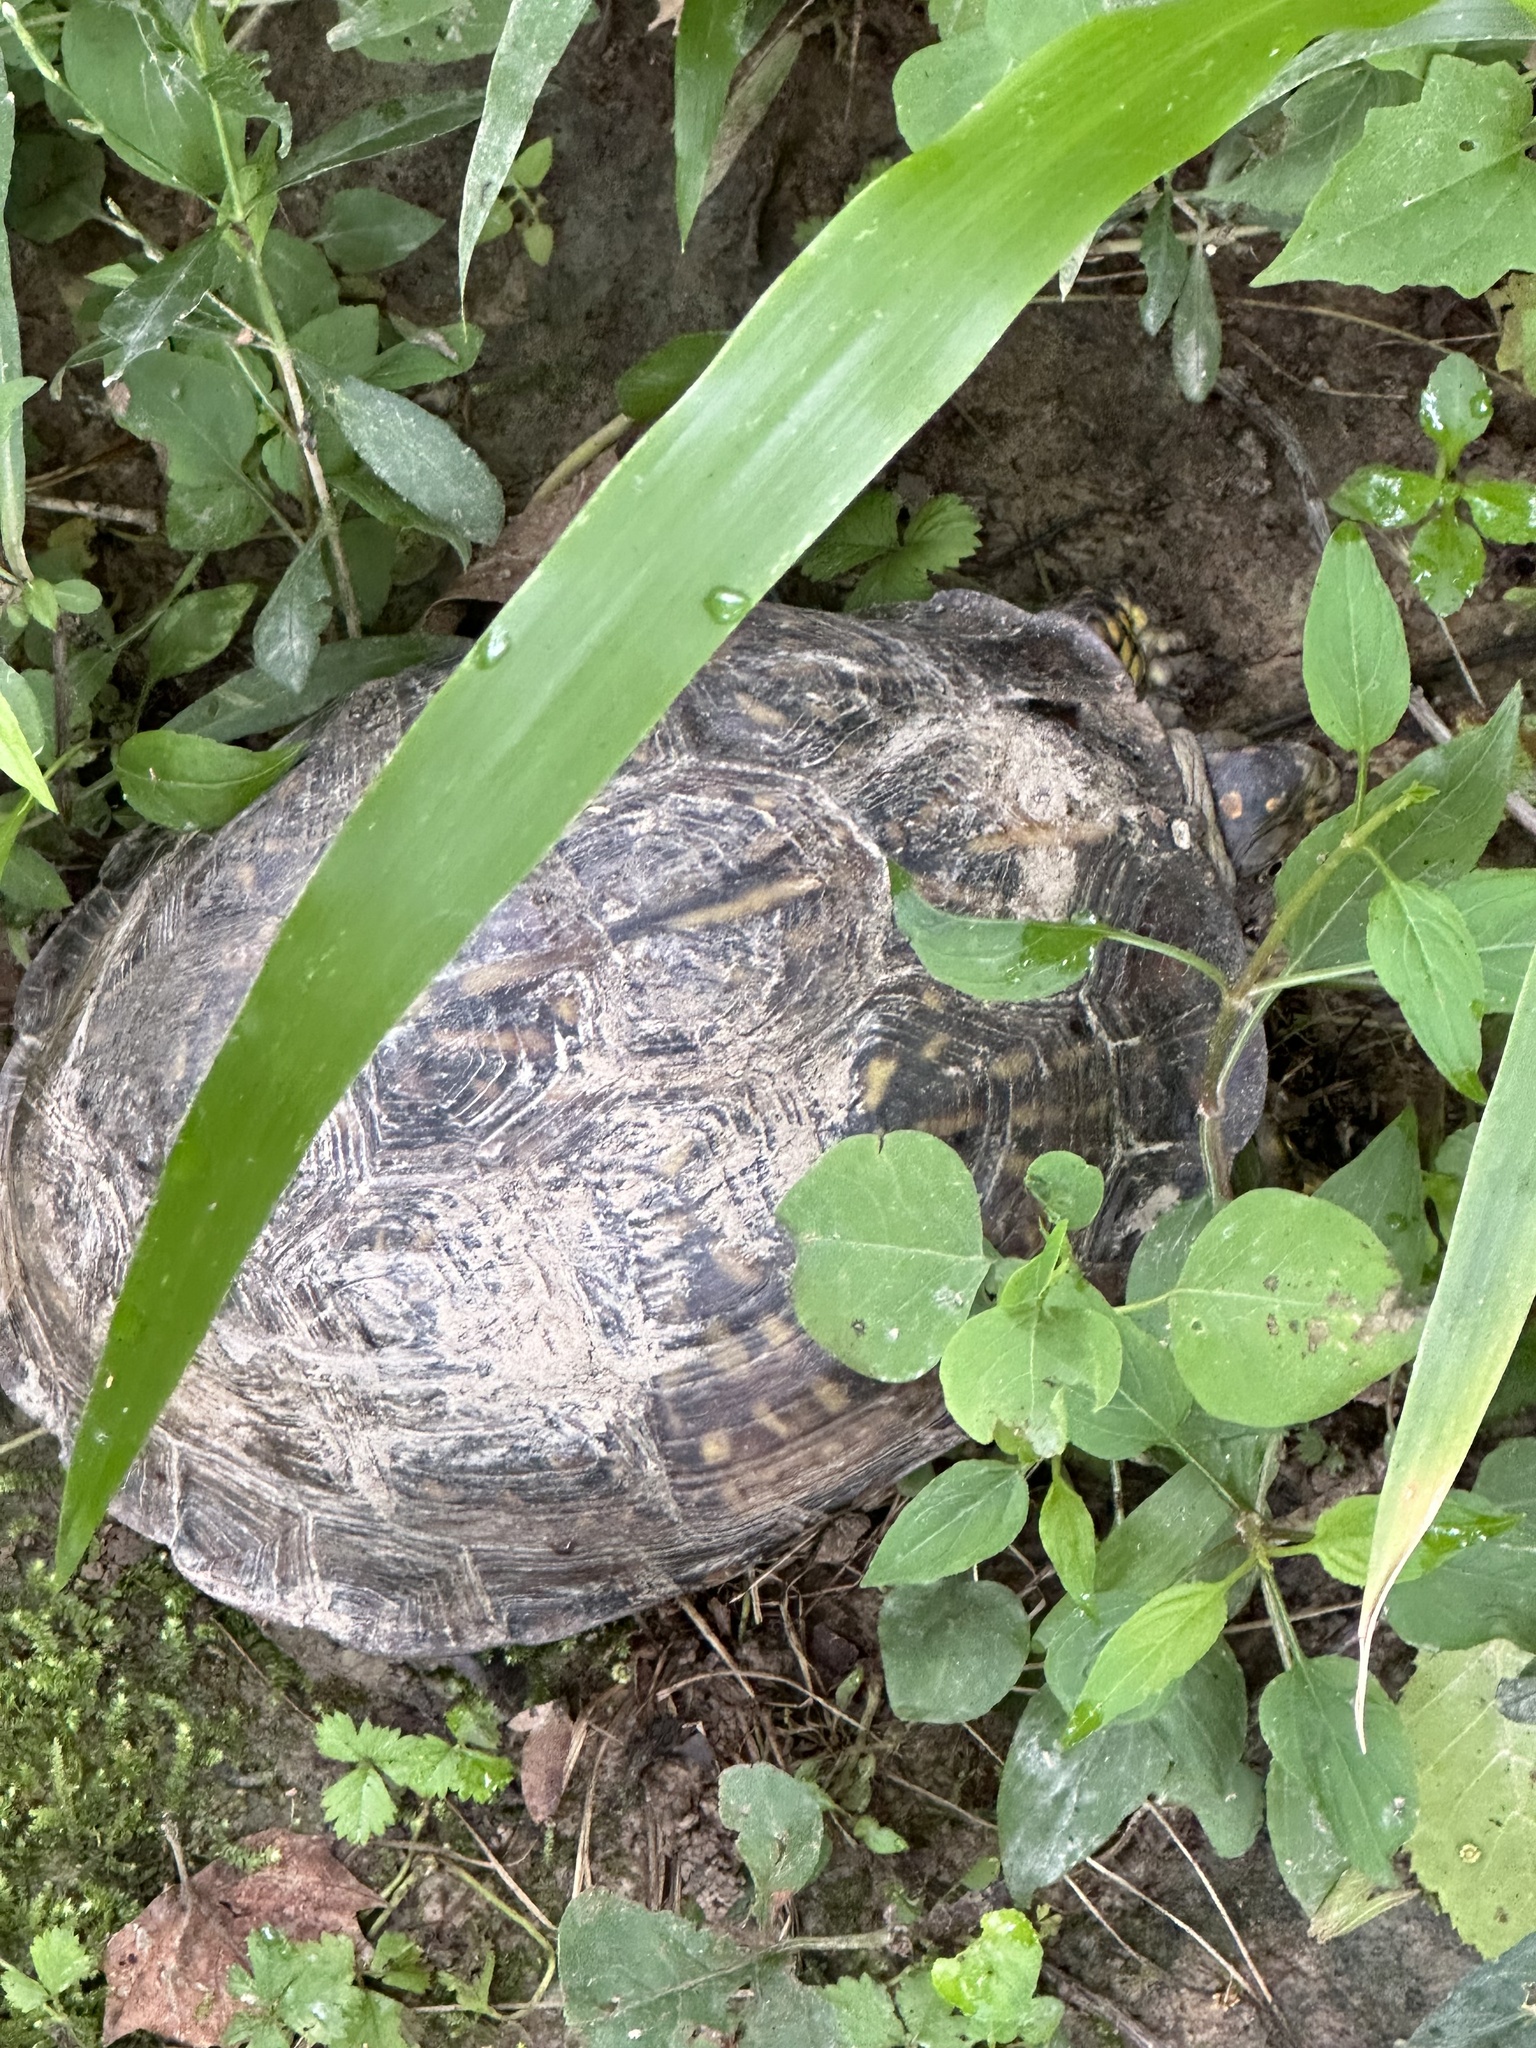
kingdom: Animalia
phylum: Chordata
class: Testudines
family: Emydidae
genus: Terrapene
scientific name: Terrapene carolina
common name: Common box turtle
